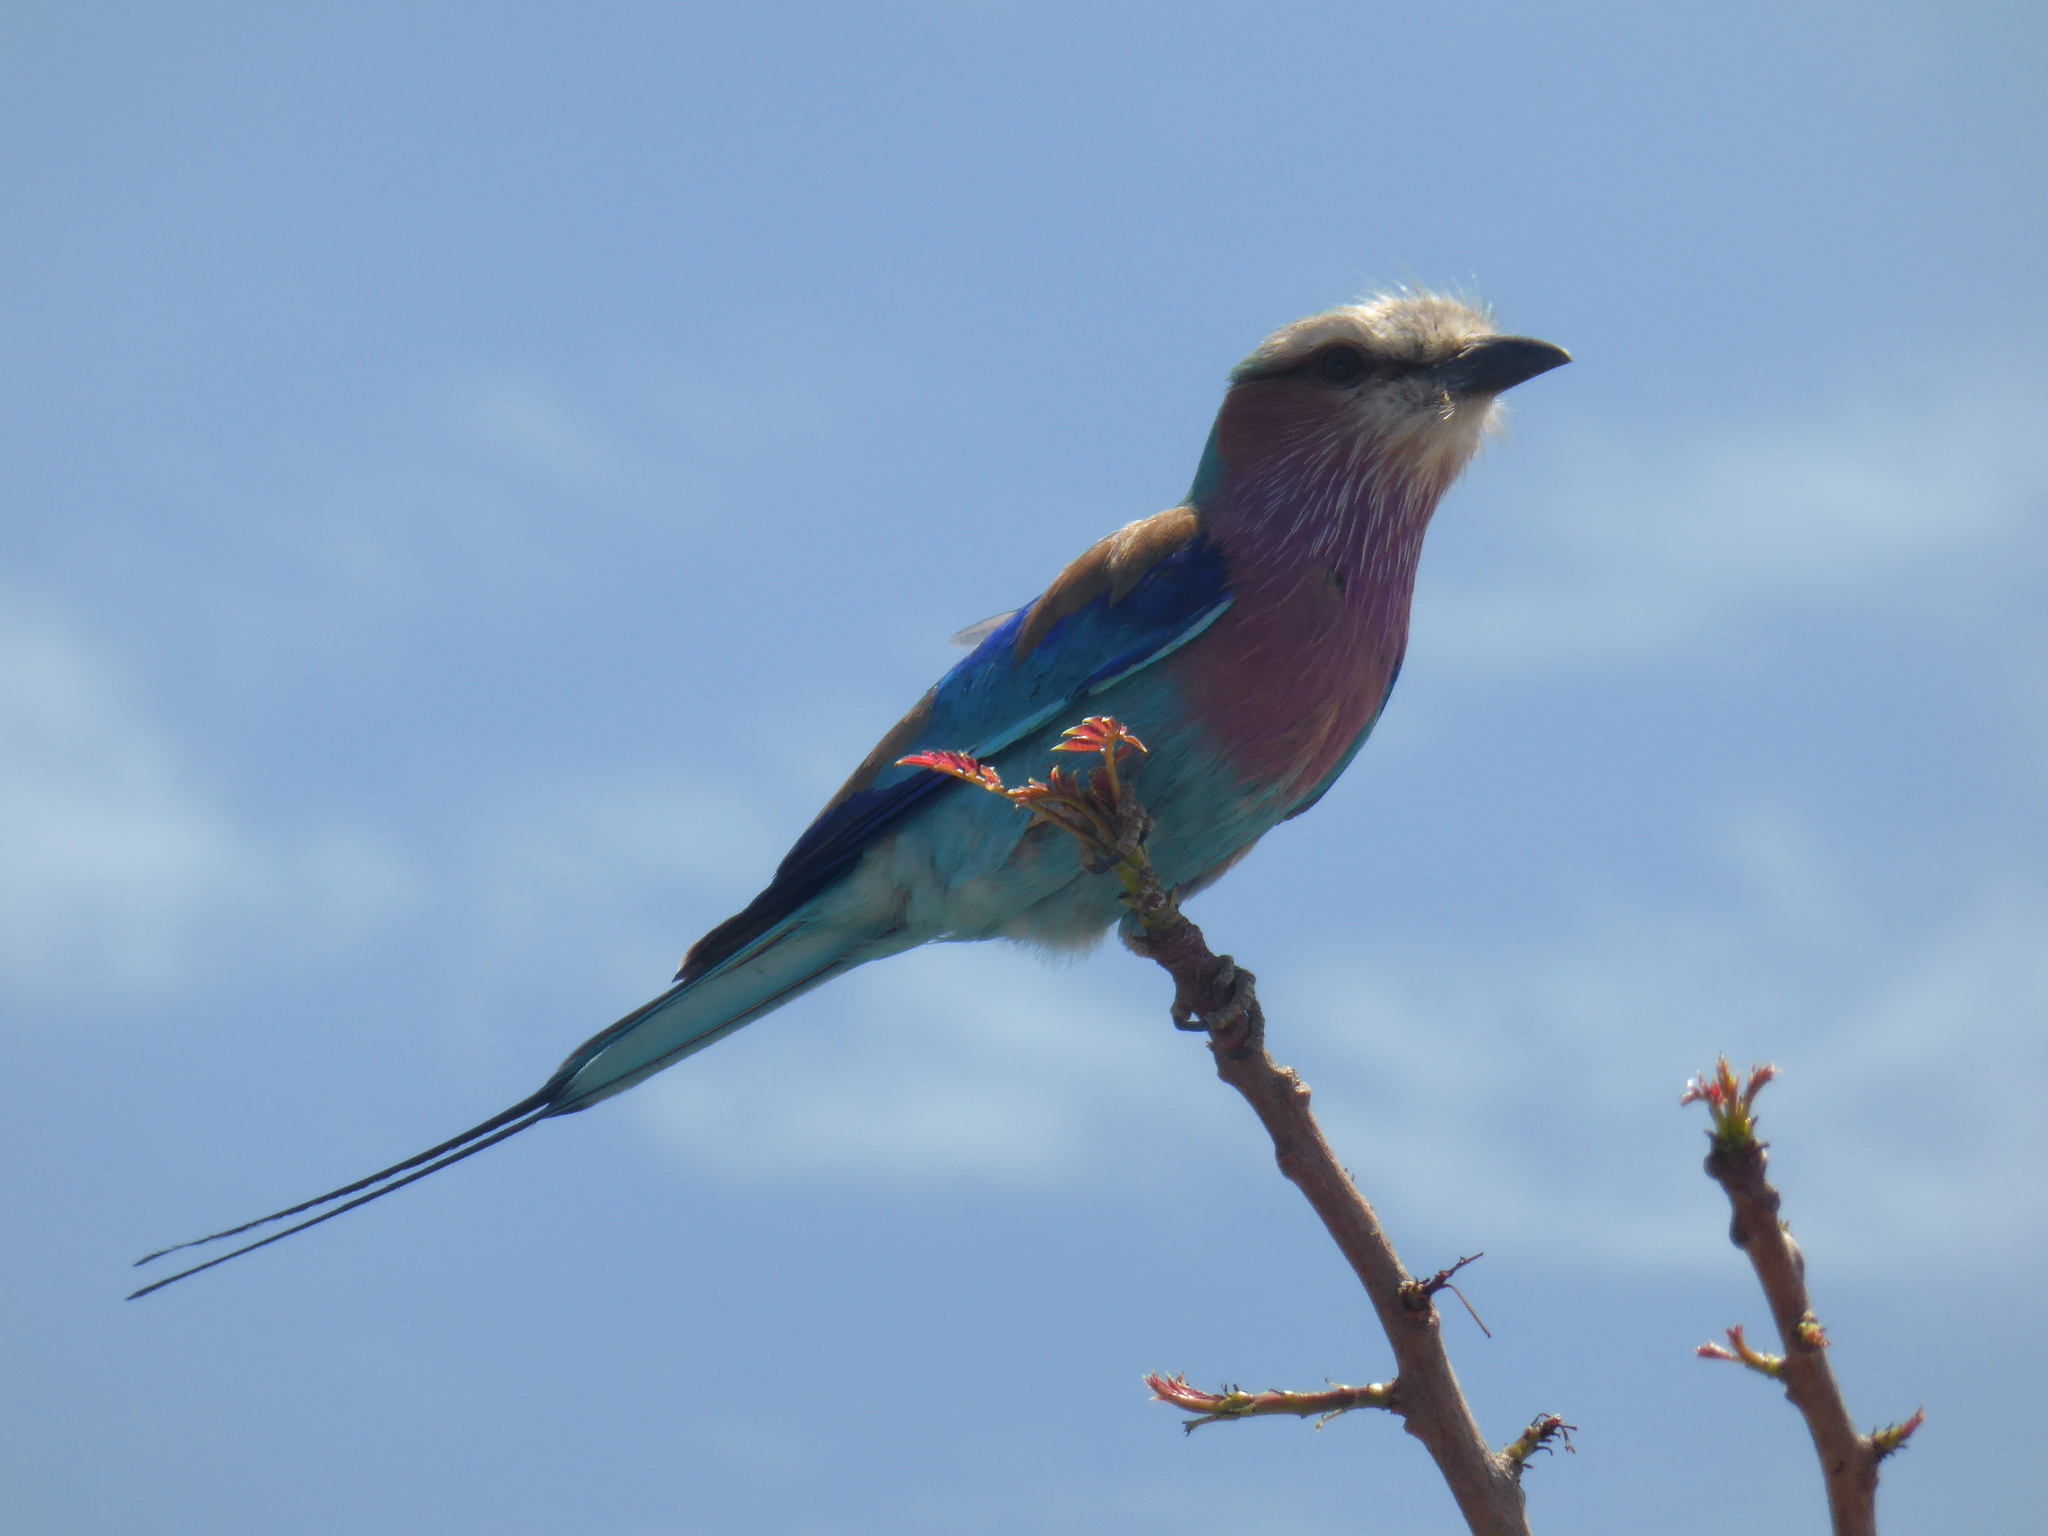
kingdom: Animalia
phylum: Chordata
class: Aves
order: Coraciiformes
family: Coraciidae
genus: Coracias
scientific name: Coracias caudatus
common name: Lilac-breasted roller
